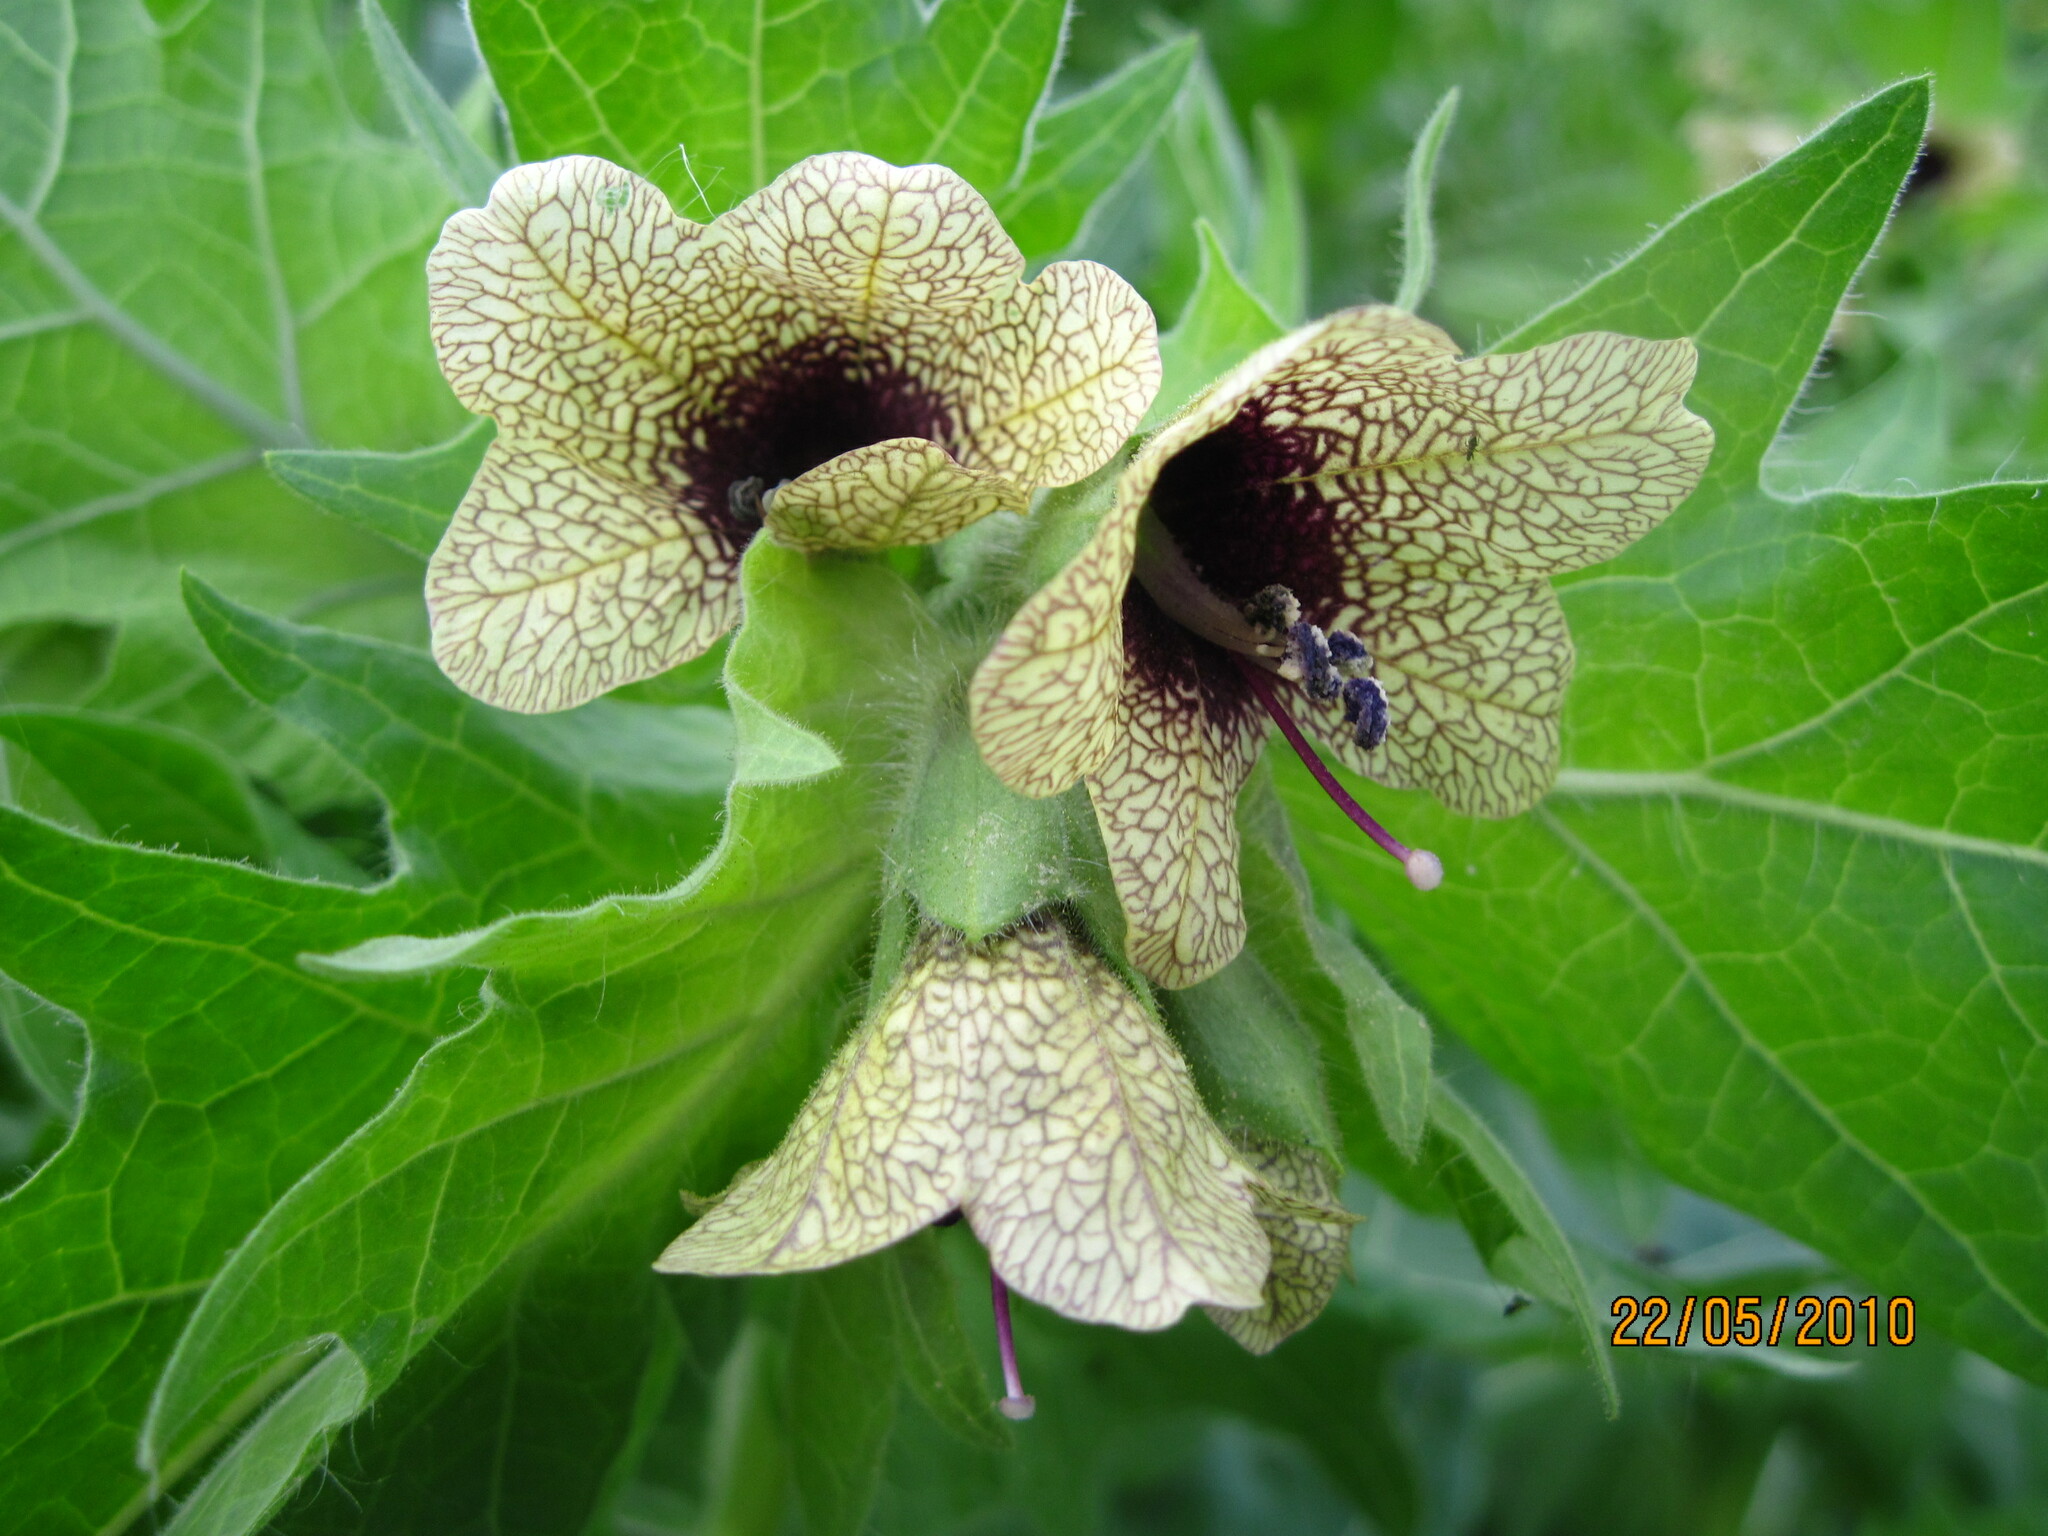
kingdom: Plantae
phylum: Tracheophyta
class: Magnoliopsida
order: Solanales
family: Solanaceae
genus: Hyoscyamus
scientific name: Hyoscyamus niger
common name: Henbane
